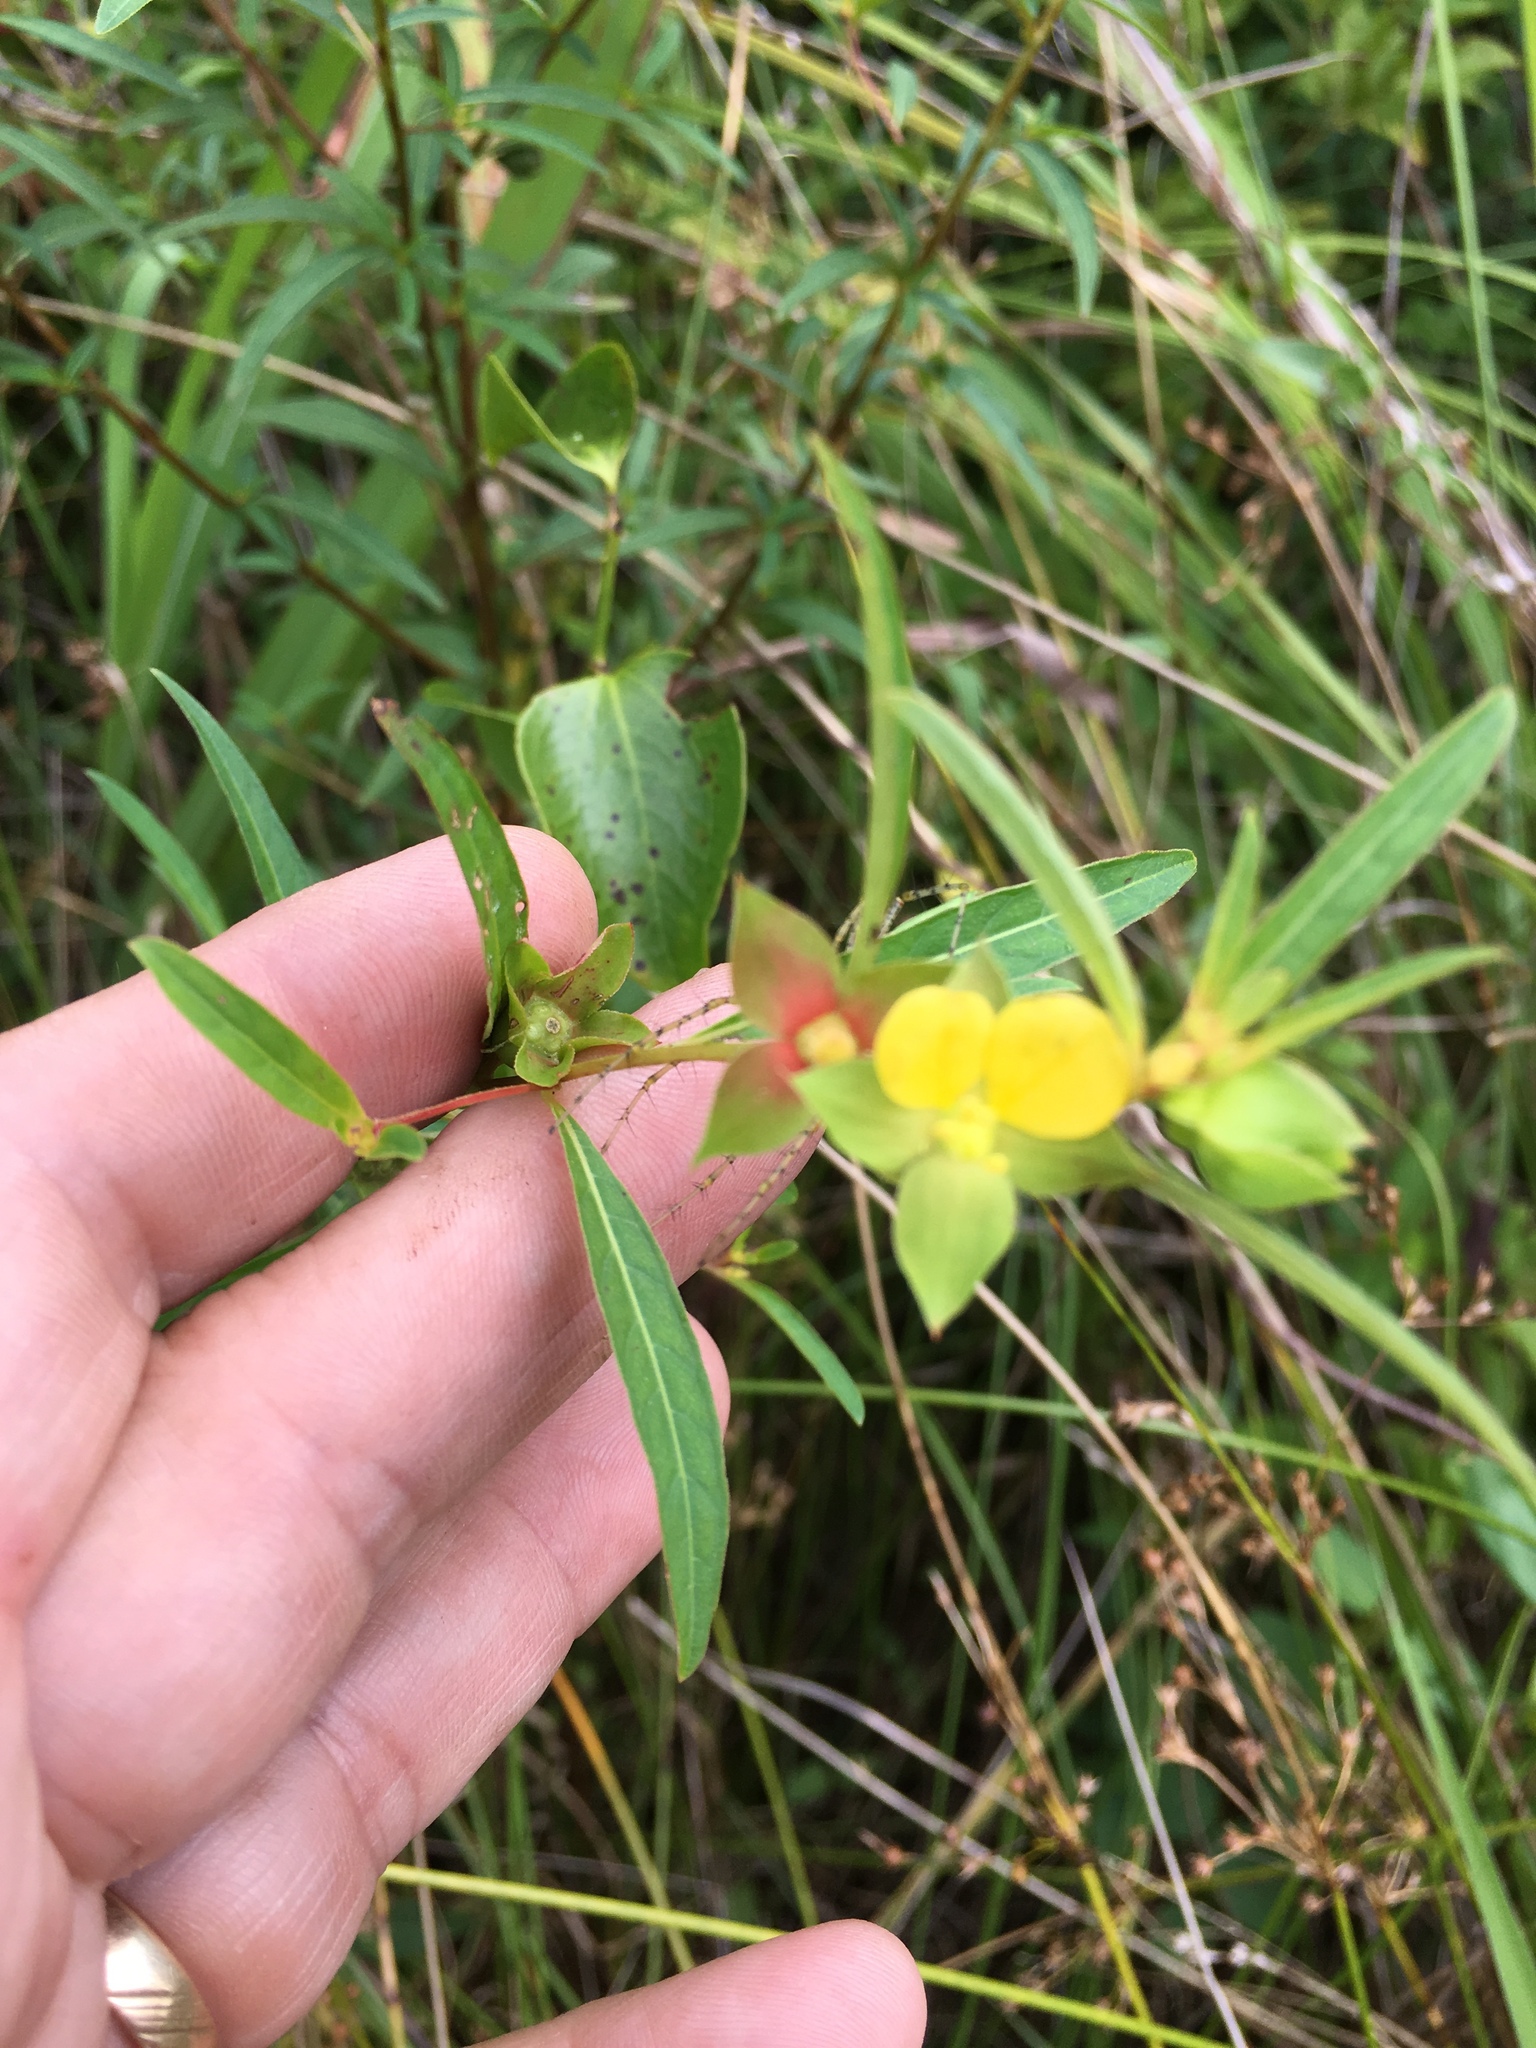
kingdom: Plantae
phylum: Tracheophyta
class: Magnoliopsida
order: Myrtales
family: Onagraceae
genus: Ludwigia
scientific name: Ludwigia alternifolia
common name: Rattlebox
